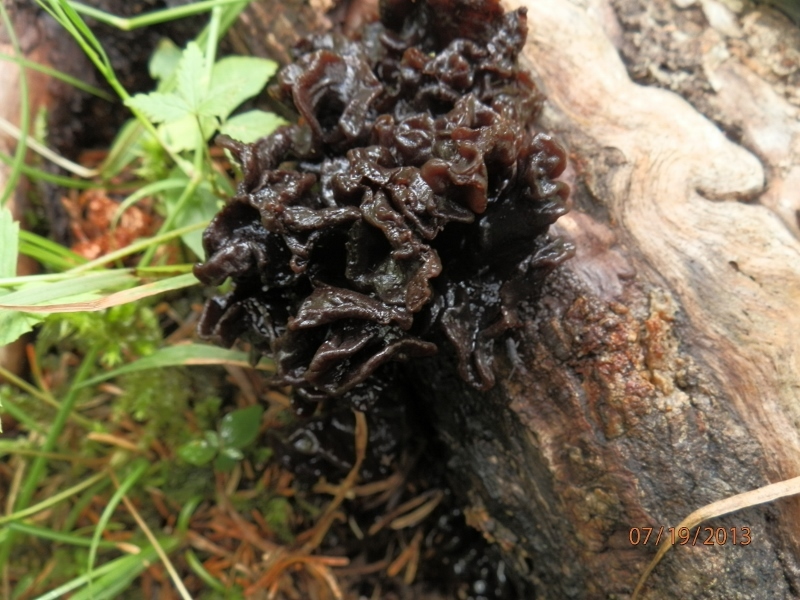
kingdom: Fungi
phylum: Basidiomycota
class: Tremellomycetes
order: Tremellales
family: Tremellaceae
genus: Phaeotremella
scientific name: Phaeotremella foliacea
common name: Leafy brain
